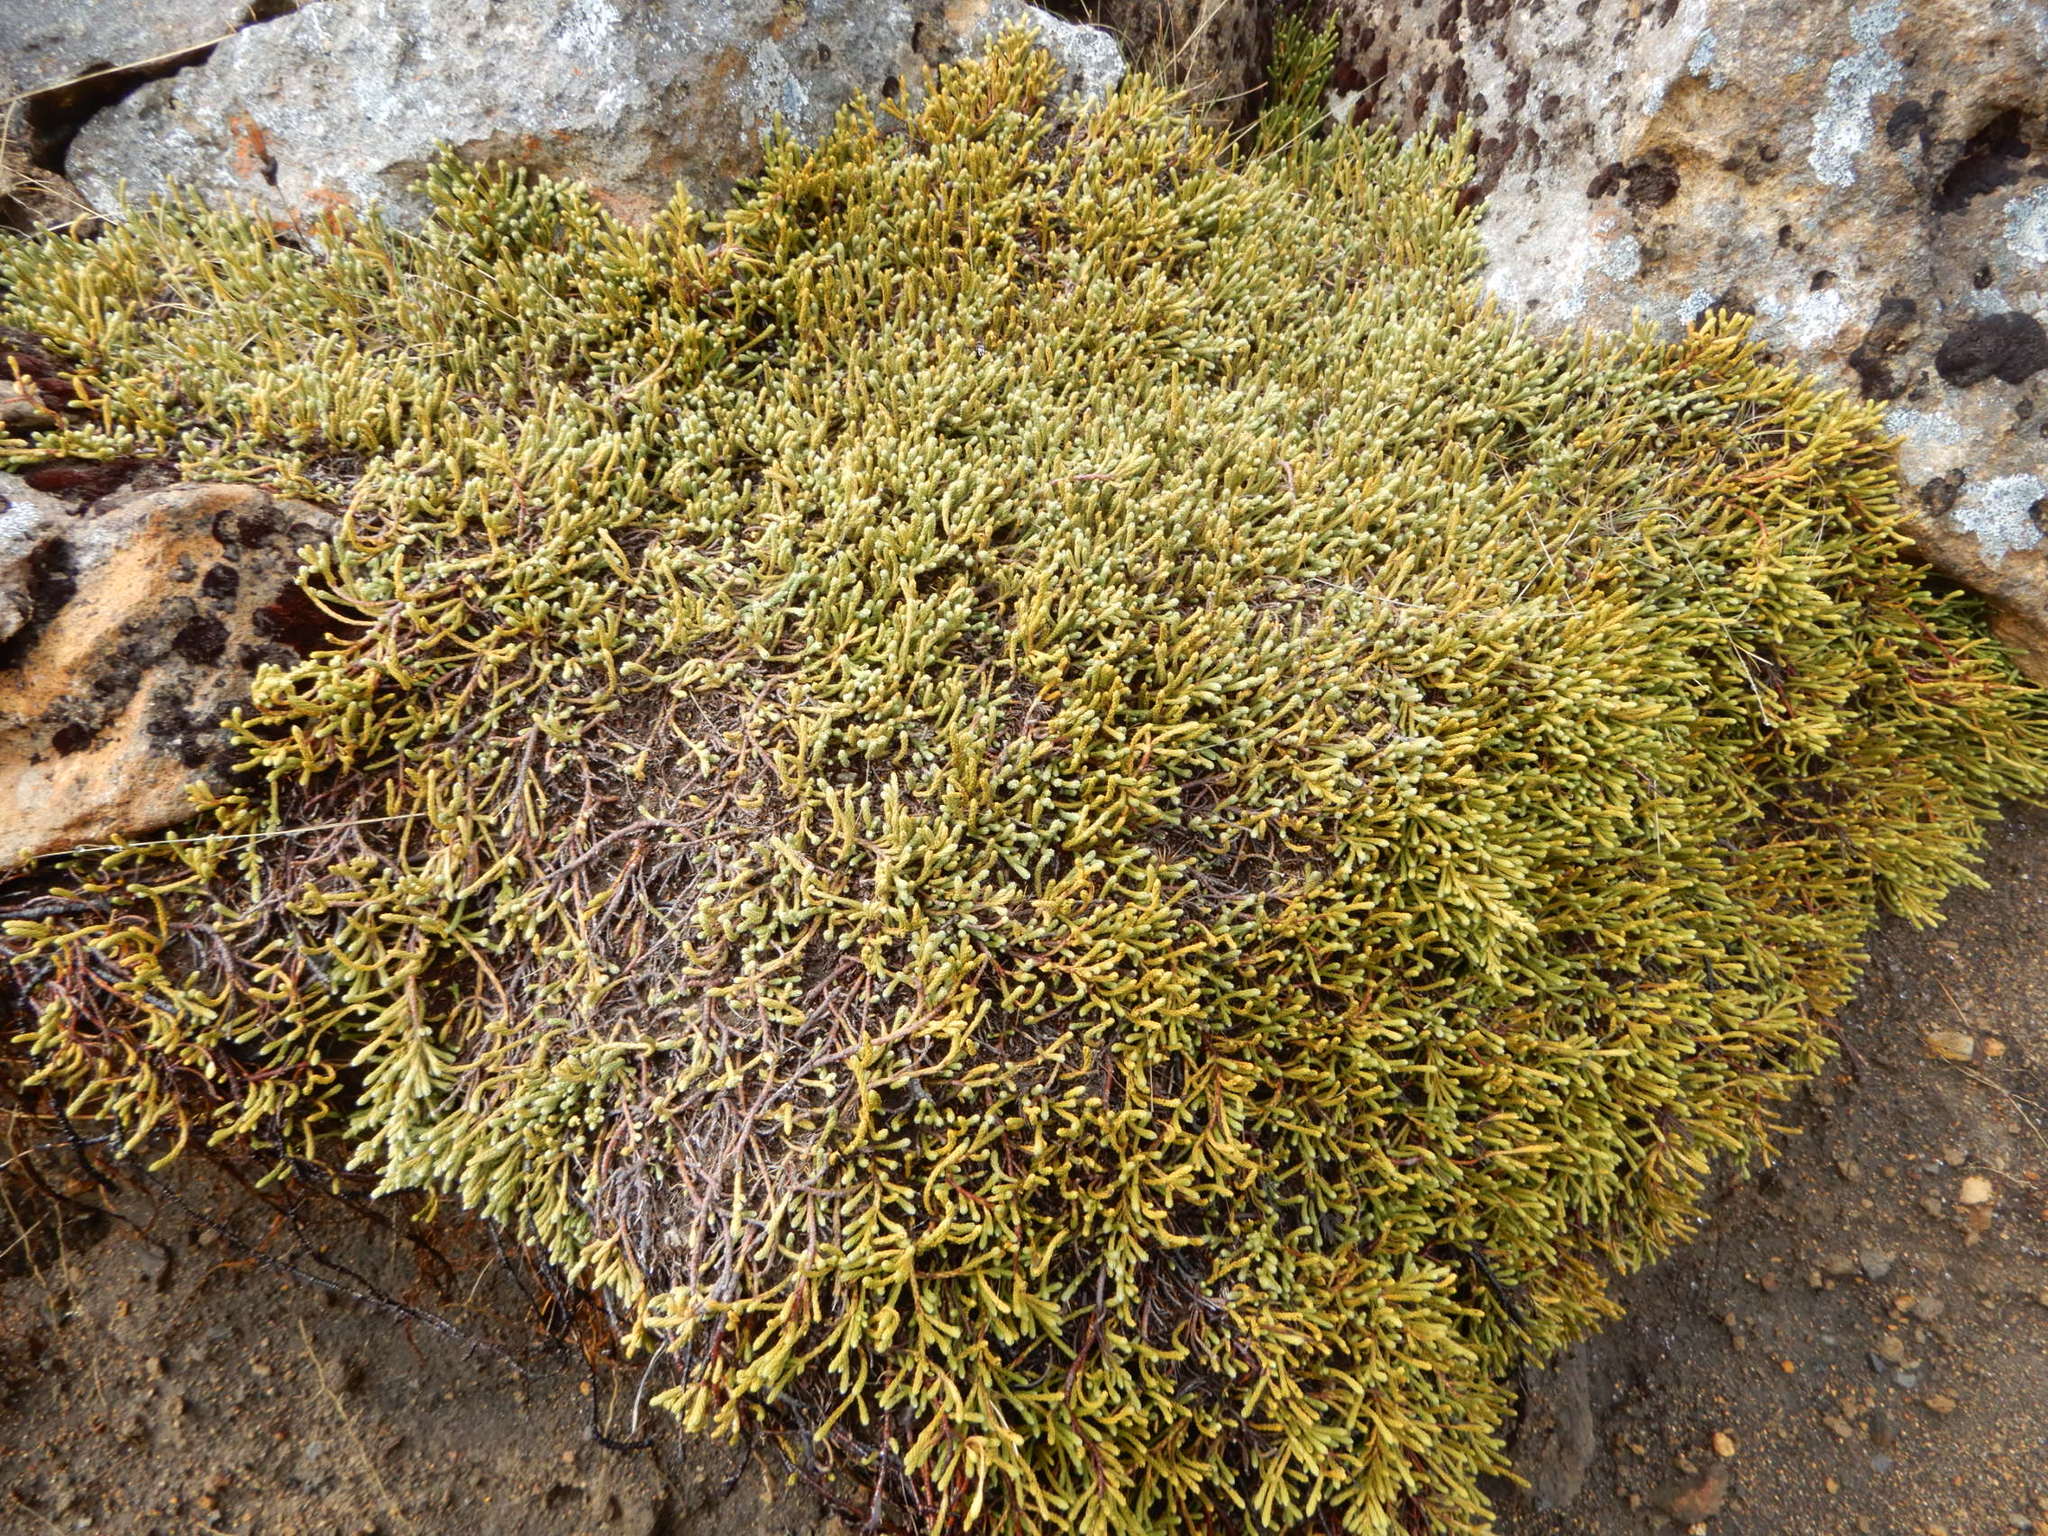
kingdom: Plantae
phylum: Tracheophyta
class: Pinopsida
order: Pinales
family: Podocarpaceae
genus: Lepidothamnus
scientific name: Lepidothamnus laxifolius
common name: Pygmy pine
